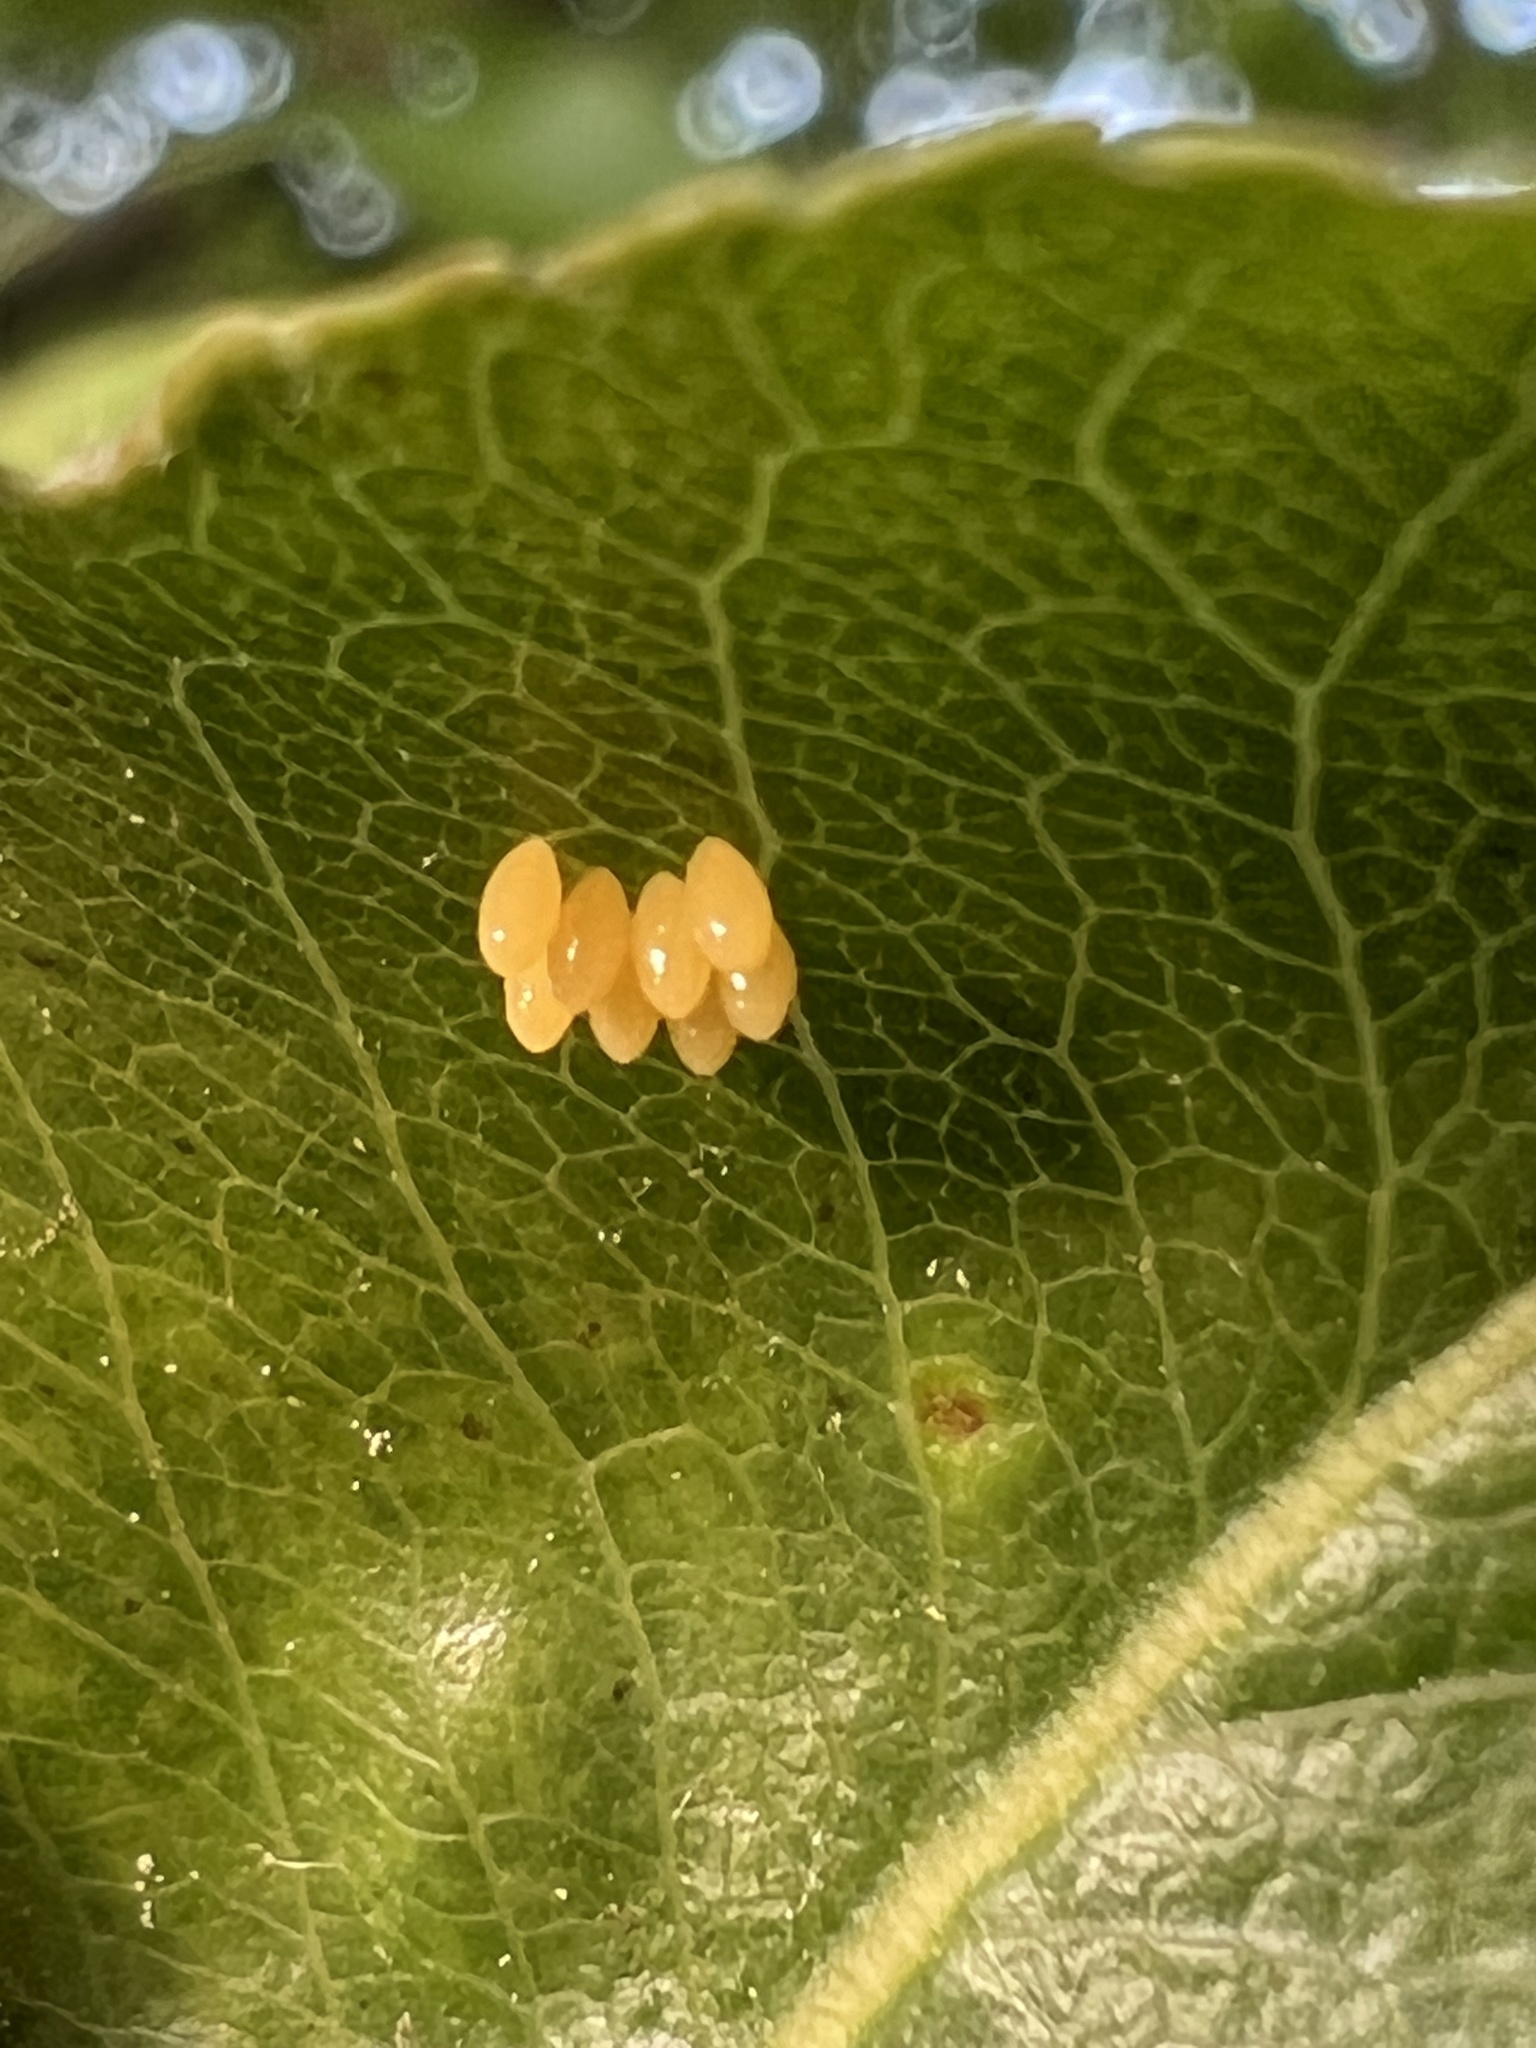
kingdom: Animalia
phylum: Arthropoda
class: Insecta
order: Coleoptera
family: Coccinellidae
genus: Harmonia
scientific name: Harmonia axyridis
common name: Harlequin ladybird
